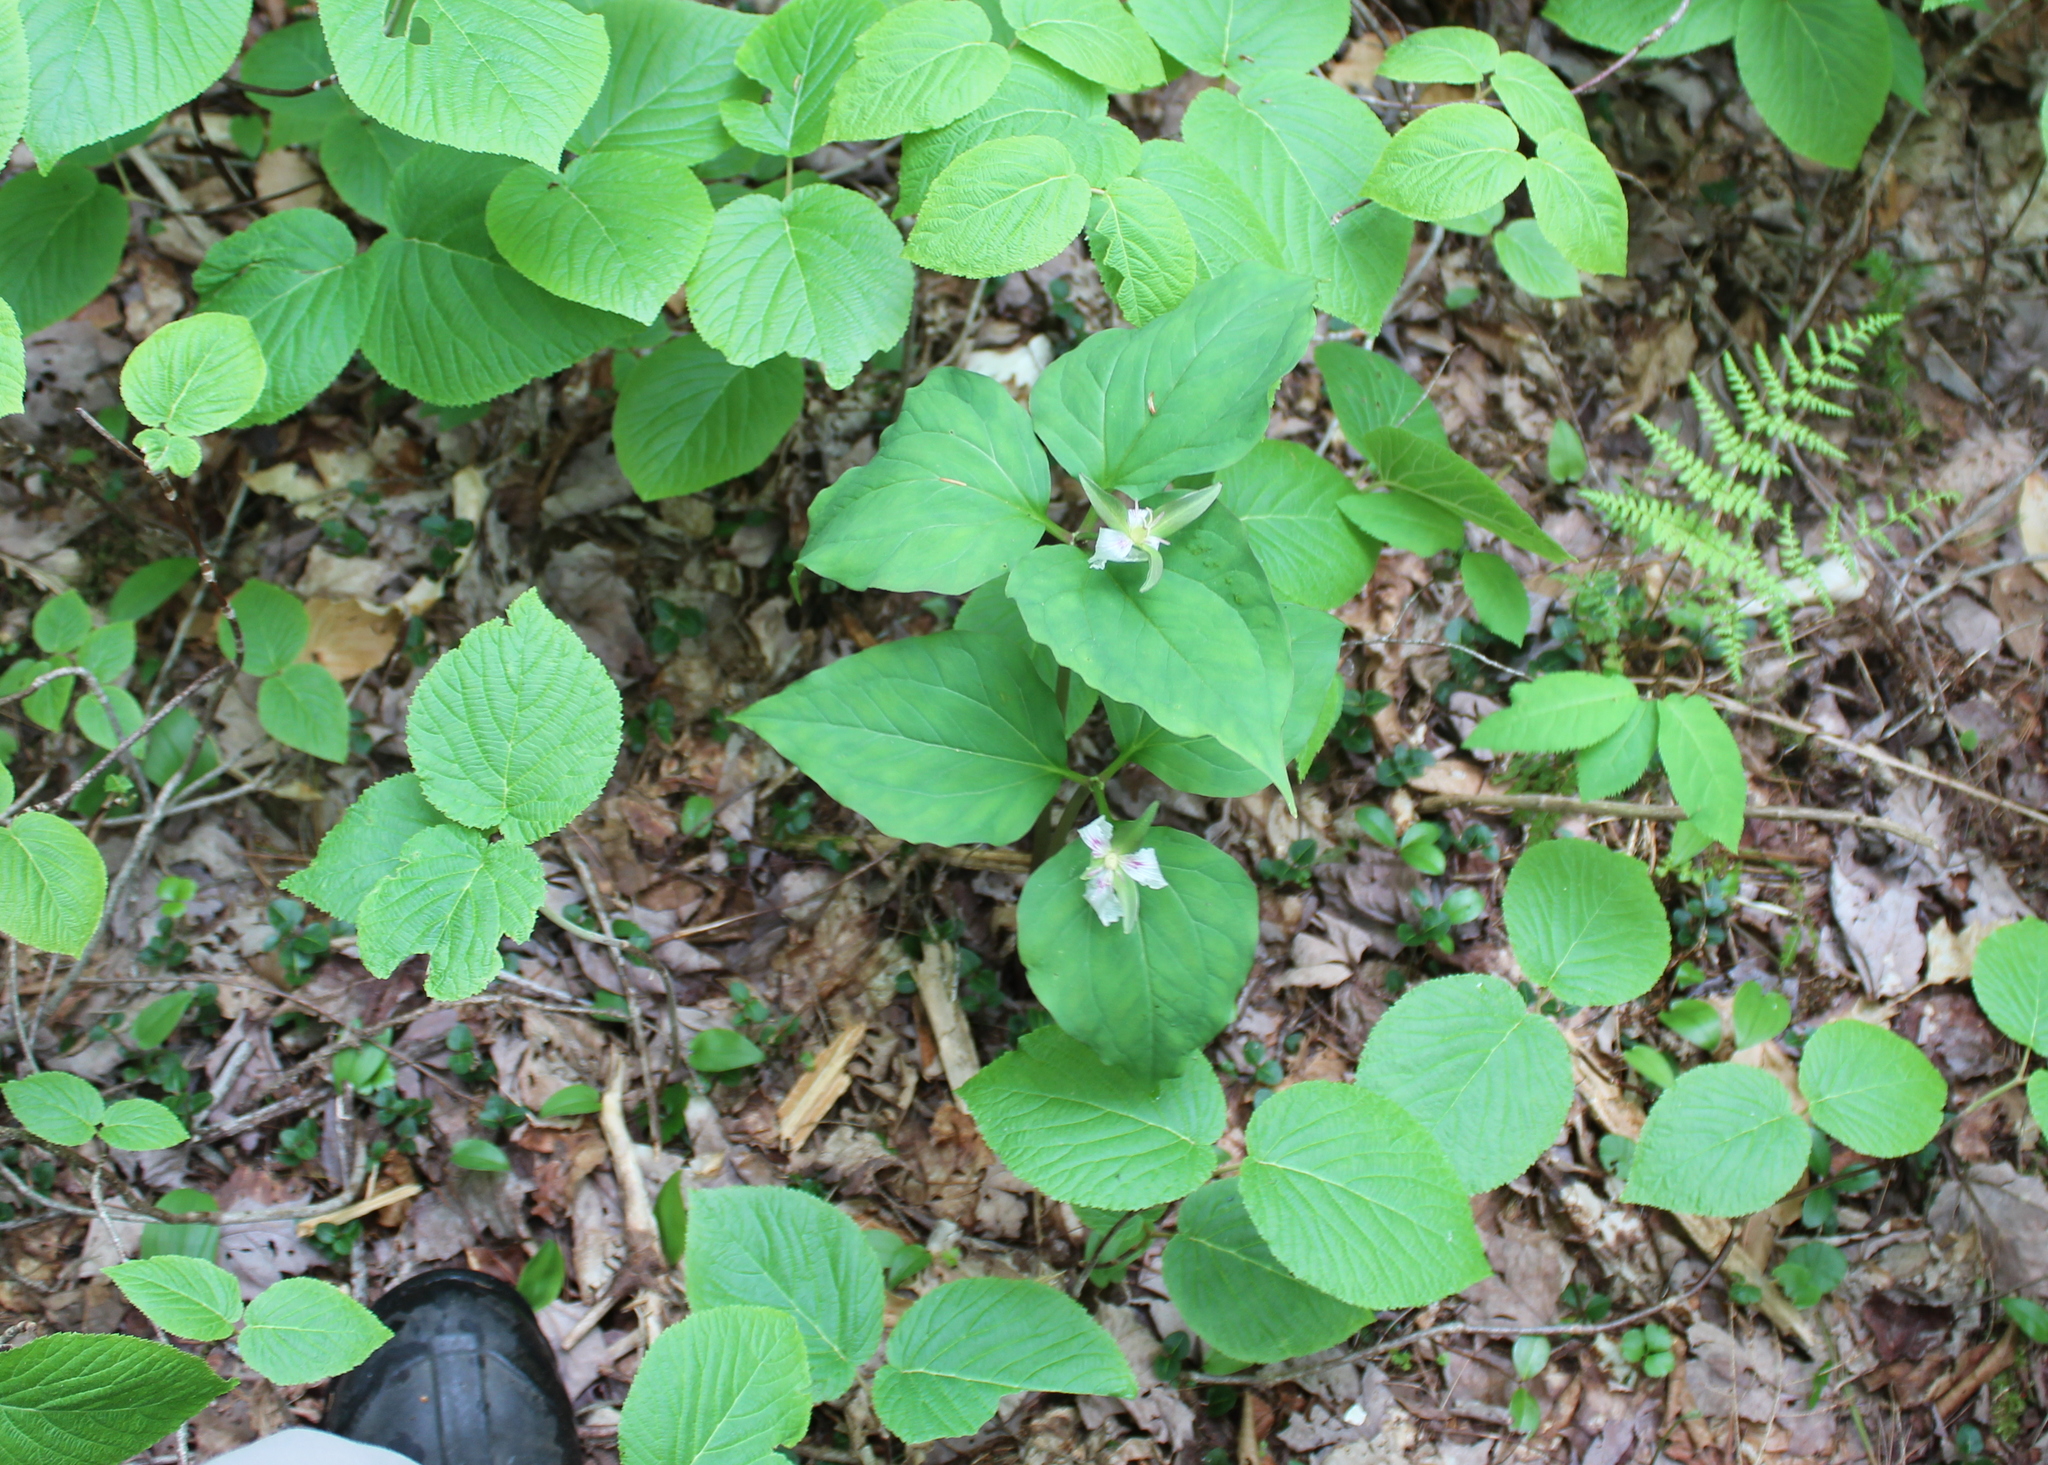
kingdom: Plantae
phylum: Tracheophyta
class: Liliopsida
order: Liliales
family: Melanthiaceae
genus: Trillium
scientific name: Trillium undulatum
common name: Paint trillium
